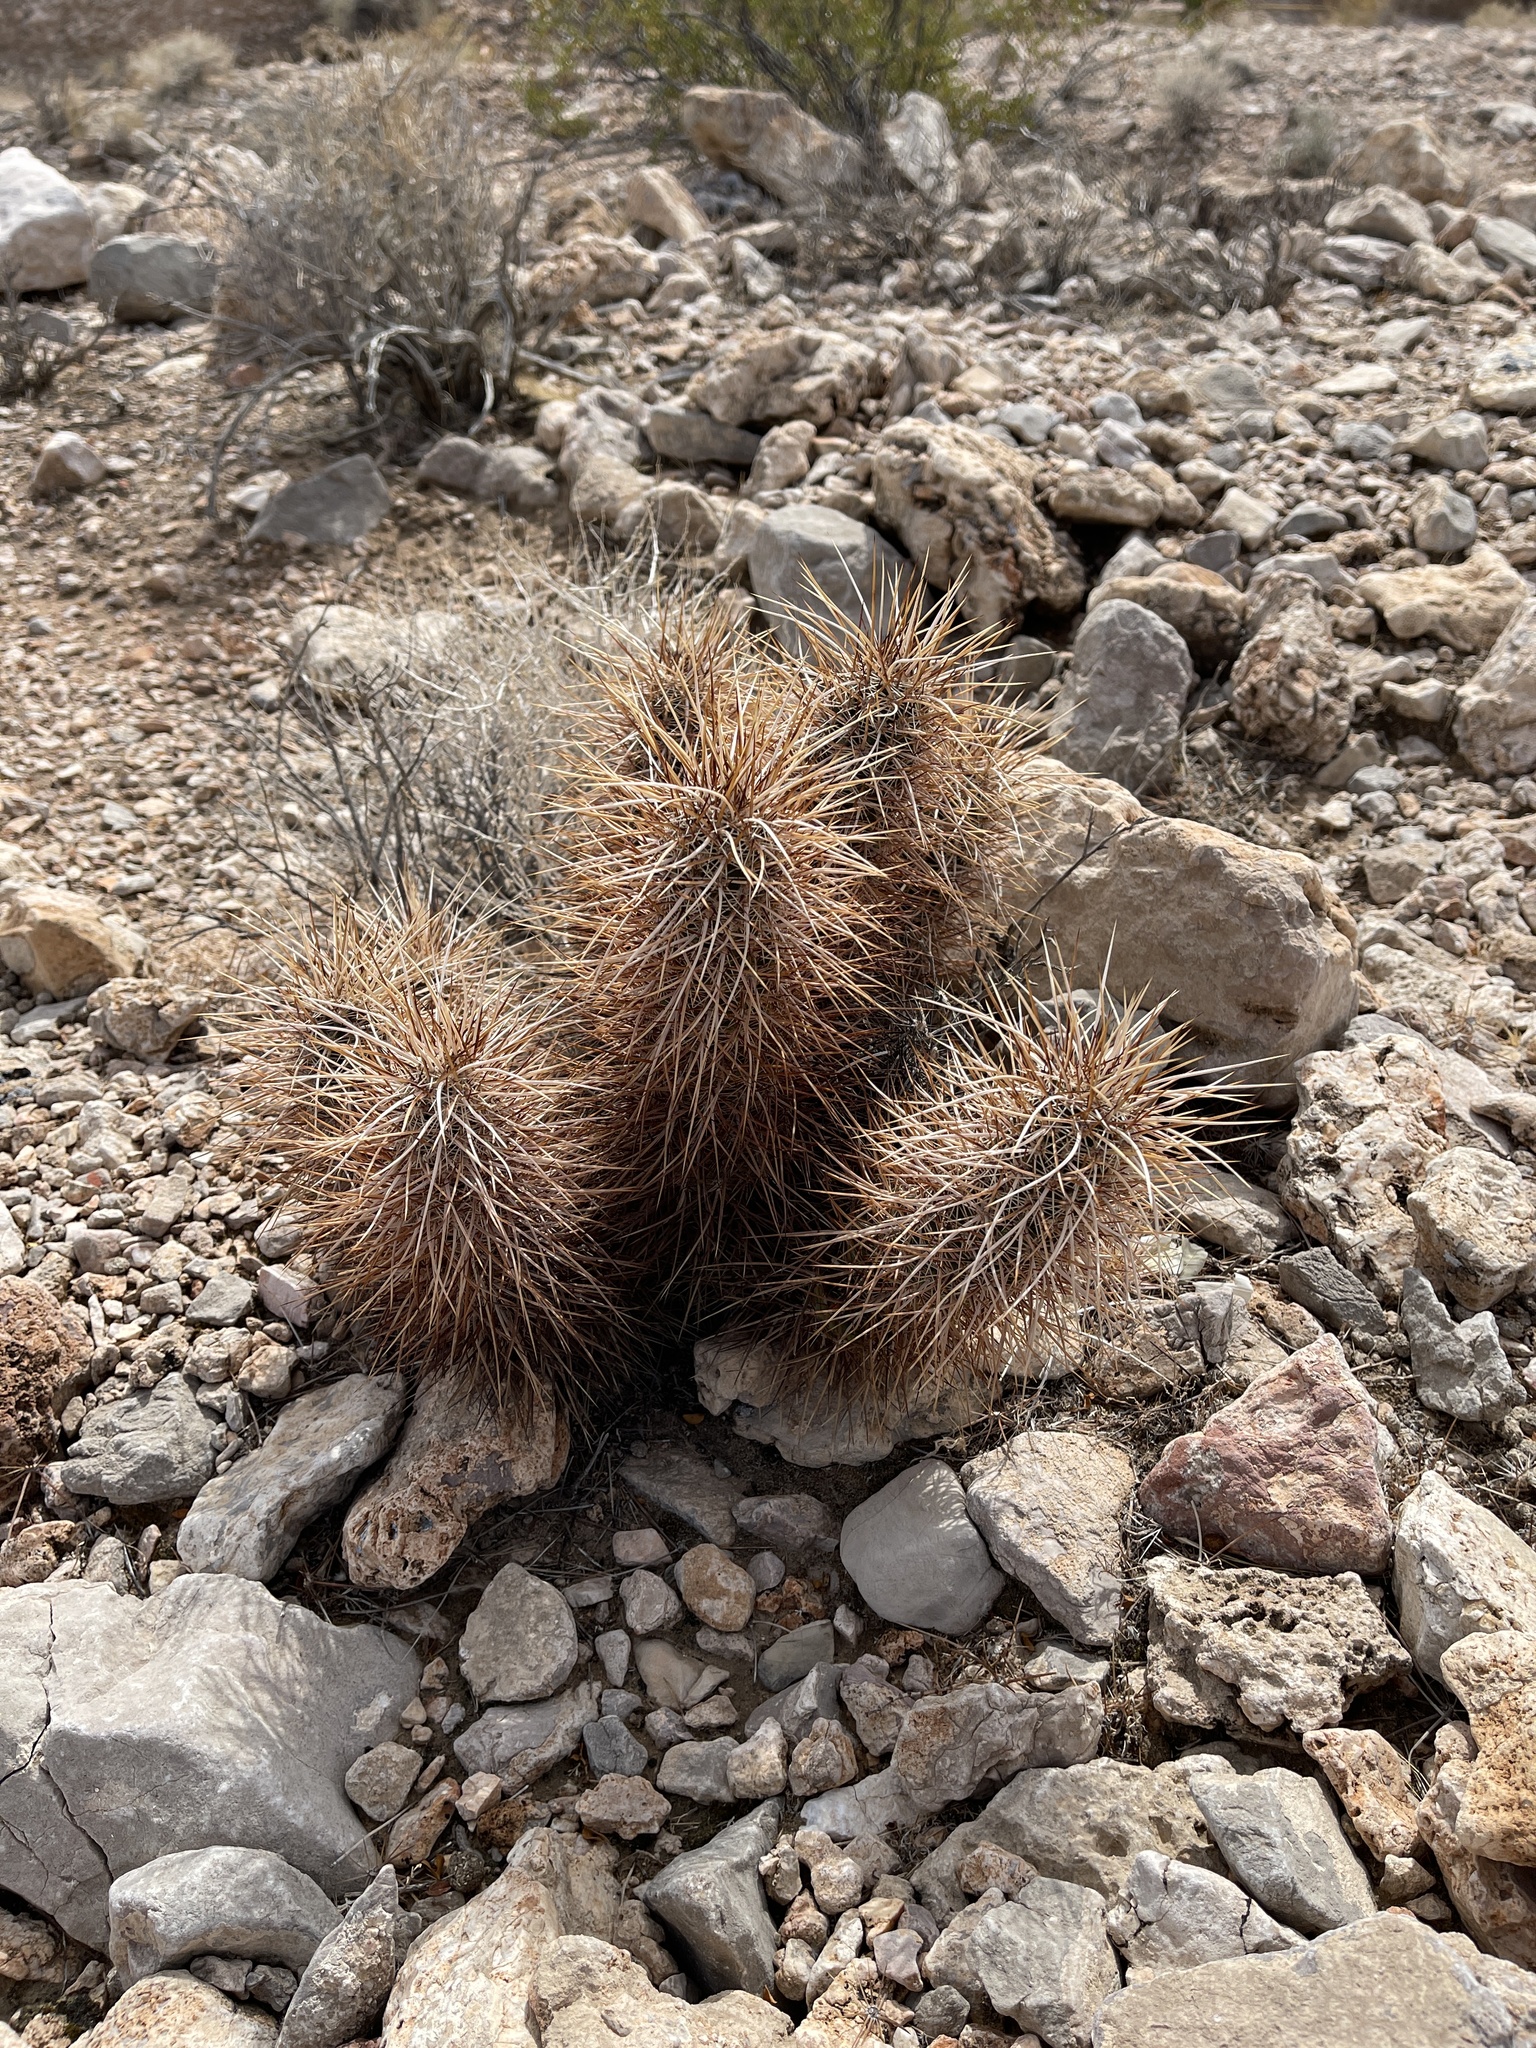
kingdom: Plantae
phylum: Tracheophyta
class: Magnoliopsida
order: Caryophyllales
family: Cactaceae
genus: Echinocereus
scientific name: Echinocereus engelmannii
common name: Engelmann's hedgehog cactus
